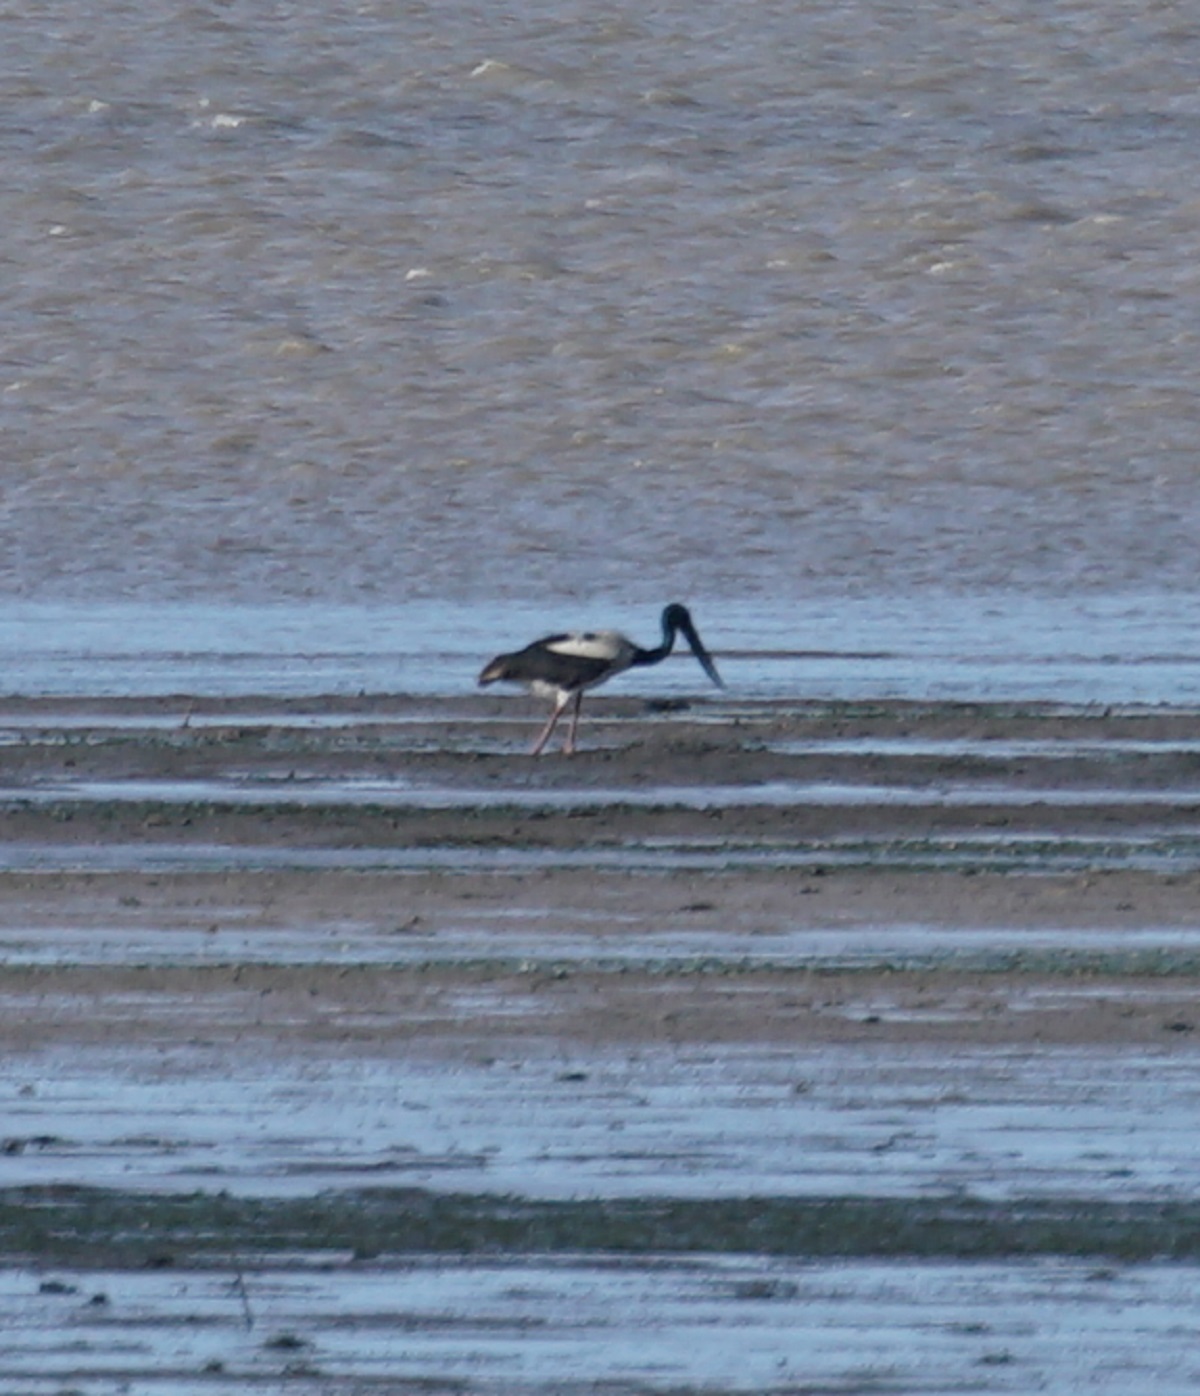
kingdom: Animalia
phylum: Chordata
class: Aves
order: Ciconiiformes
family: Ciconiidae
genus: Ephippiorhynchus
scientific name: Ephippiorhynchus asiaticus
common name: Black-necked stork
